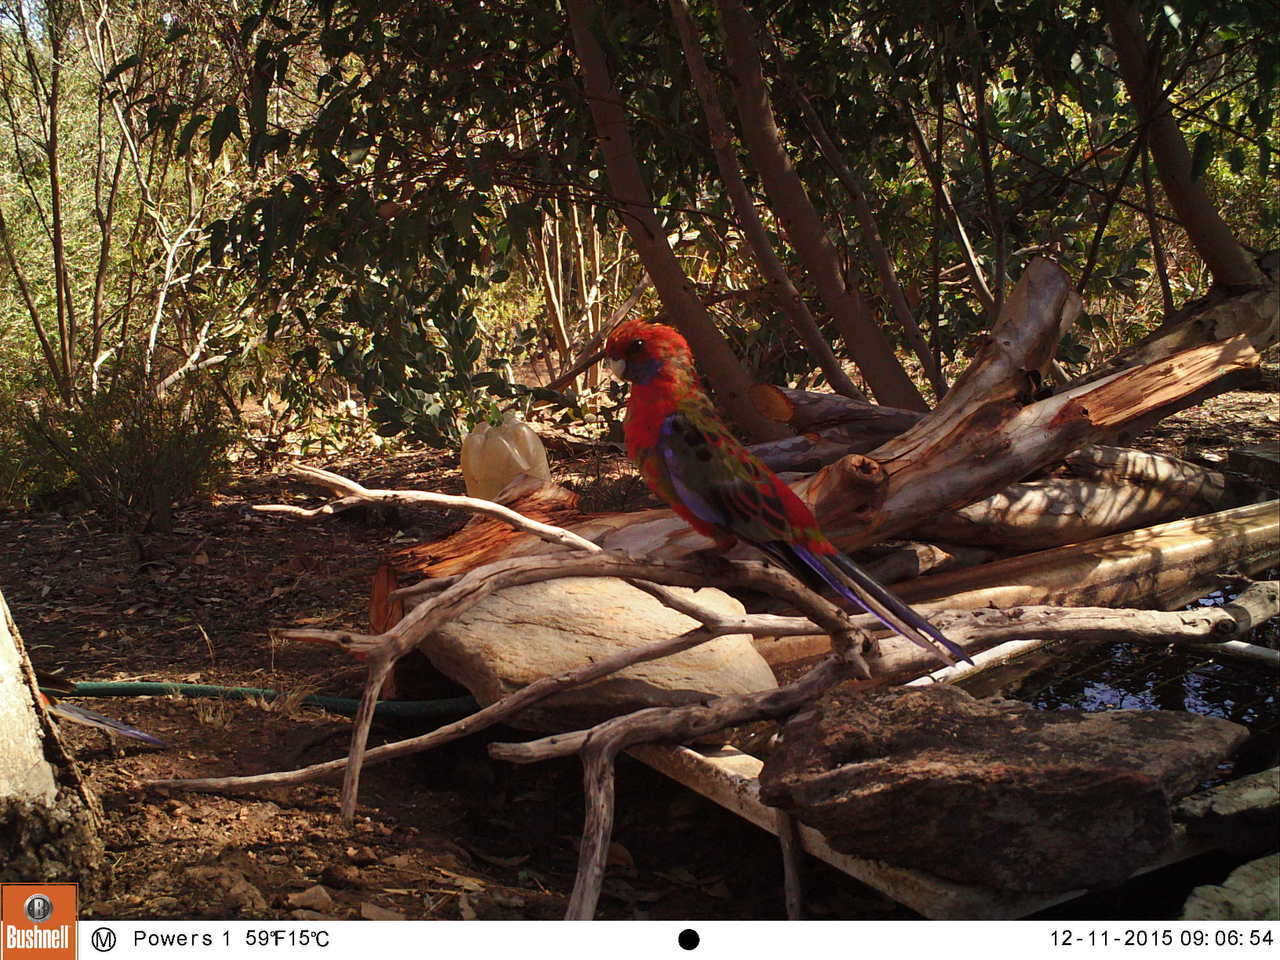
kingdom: Animalia
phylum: Chordata
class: Aves
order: Psittaciformes
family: Psittacidae
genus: Platycercus
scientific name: Platycercus elegans
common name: Crimson rosella
